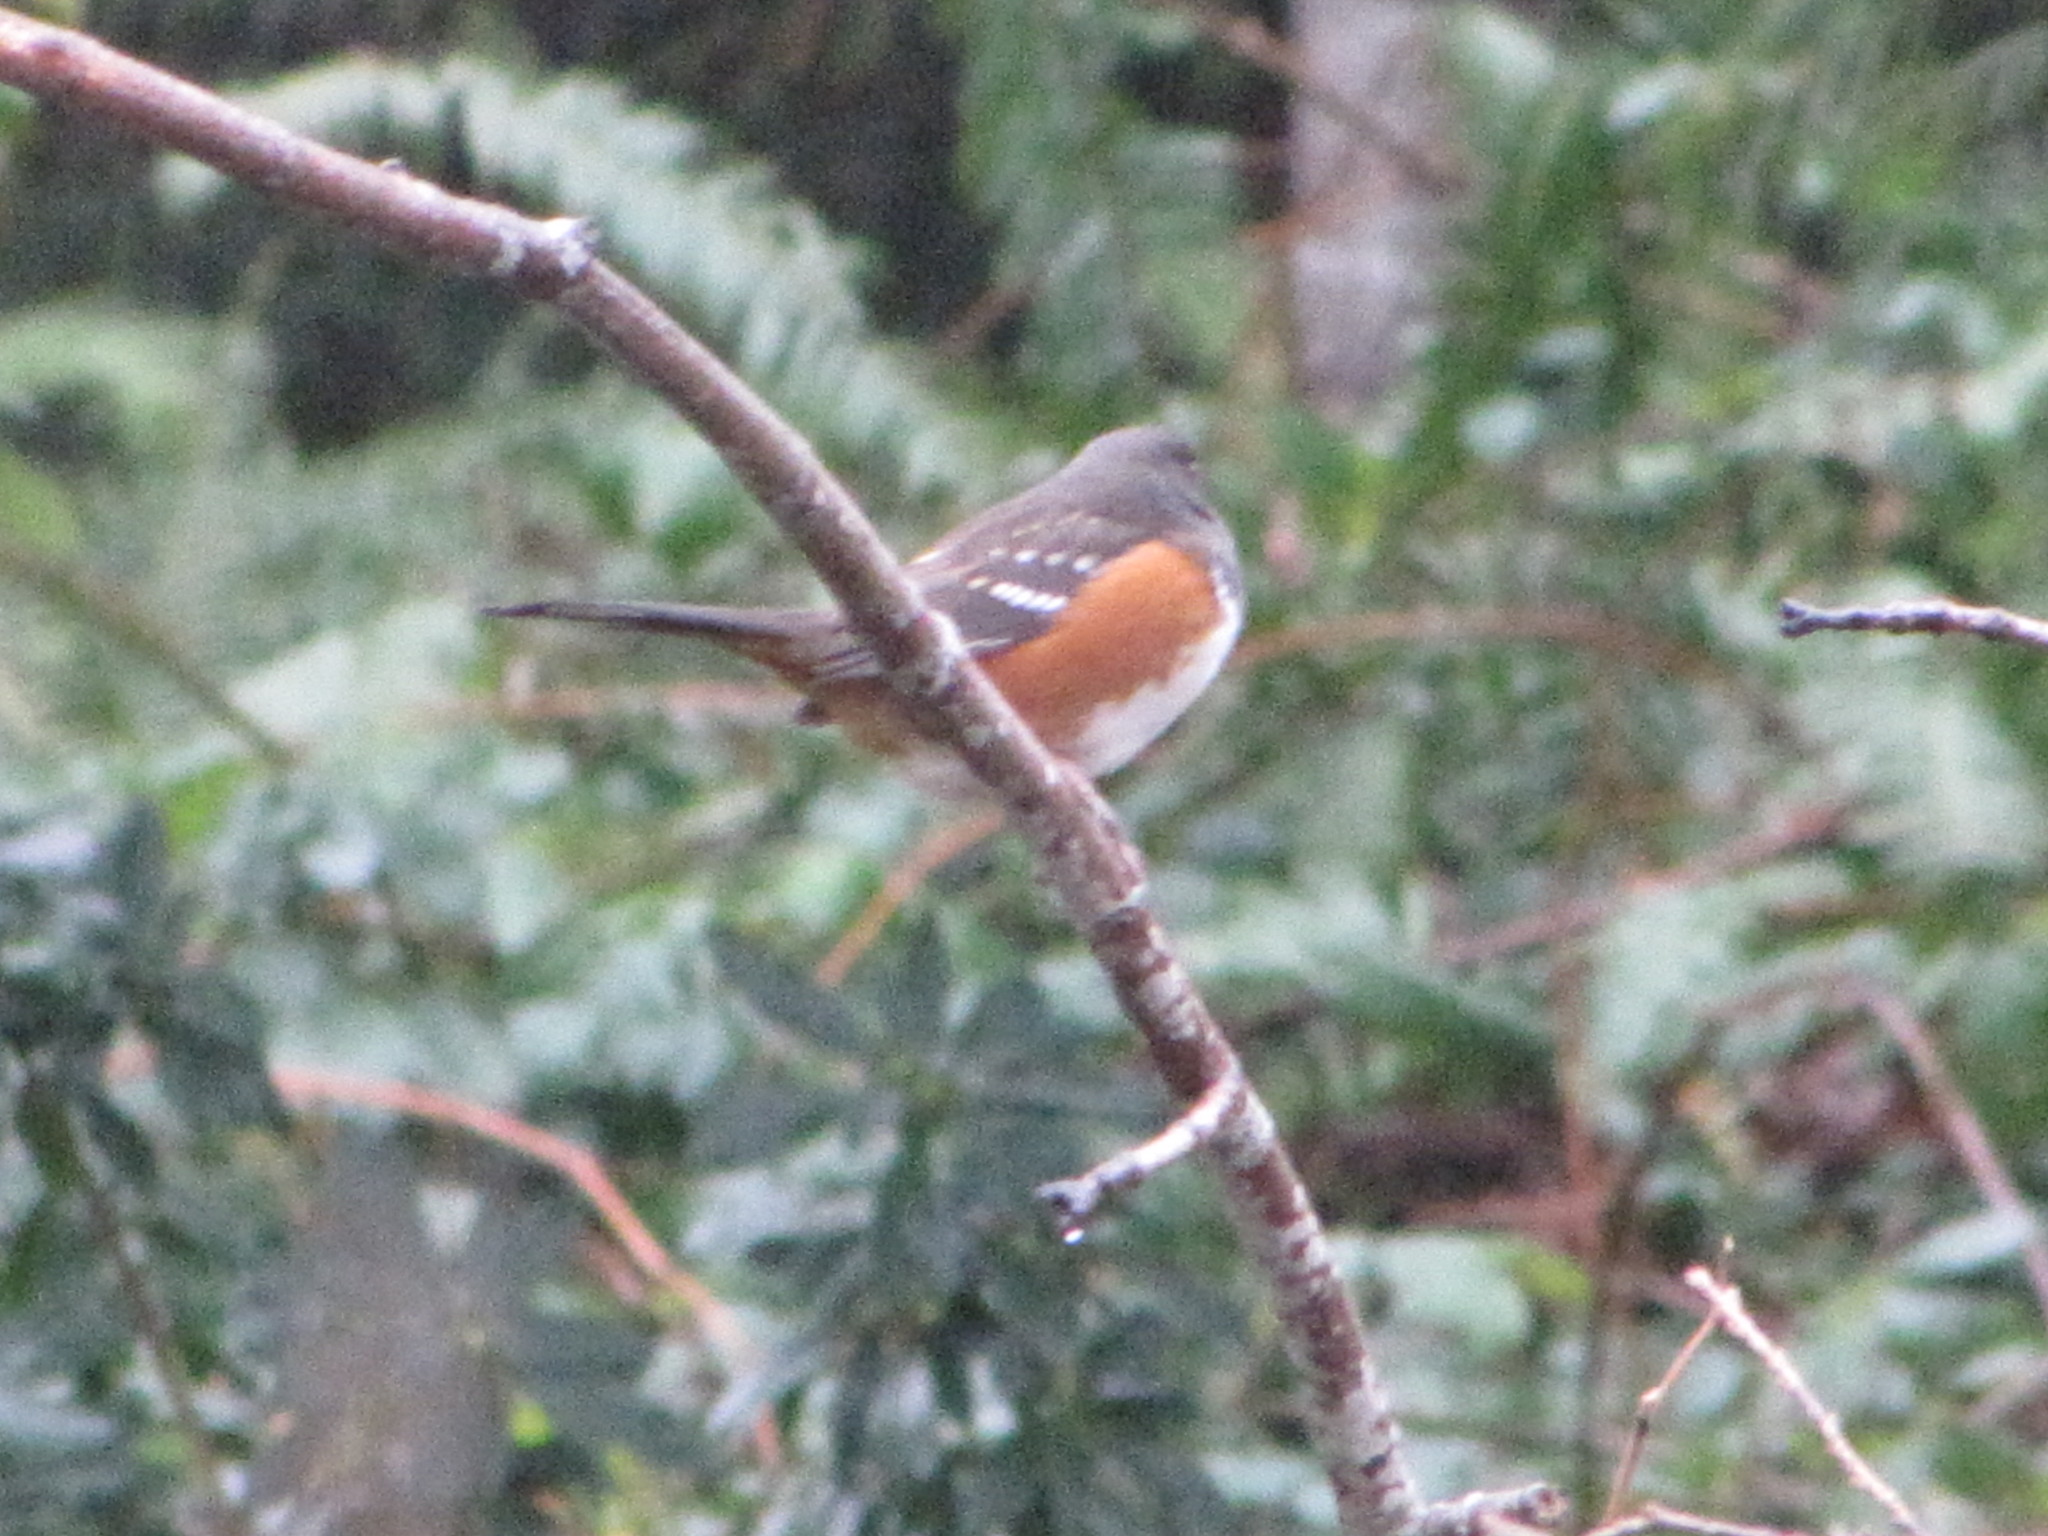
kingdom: Animalia
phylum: Chordata
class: Aves
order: Passeriformes
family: Passerellidae
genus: Pipilo
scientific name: Pipilo maculatus
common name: Spotted towhee
